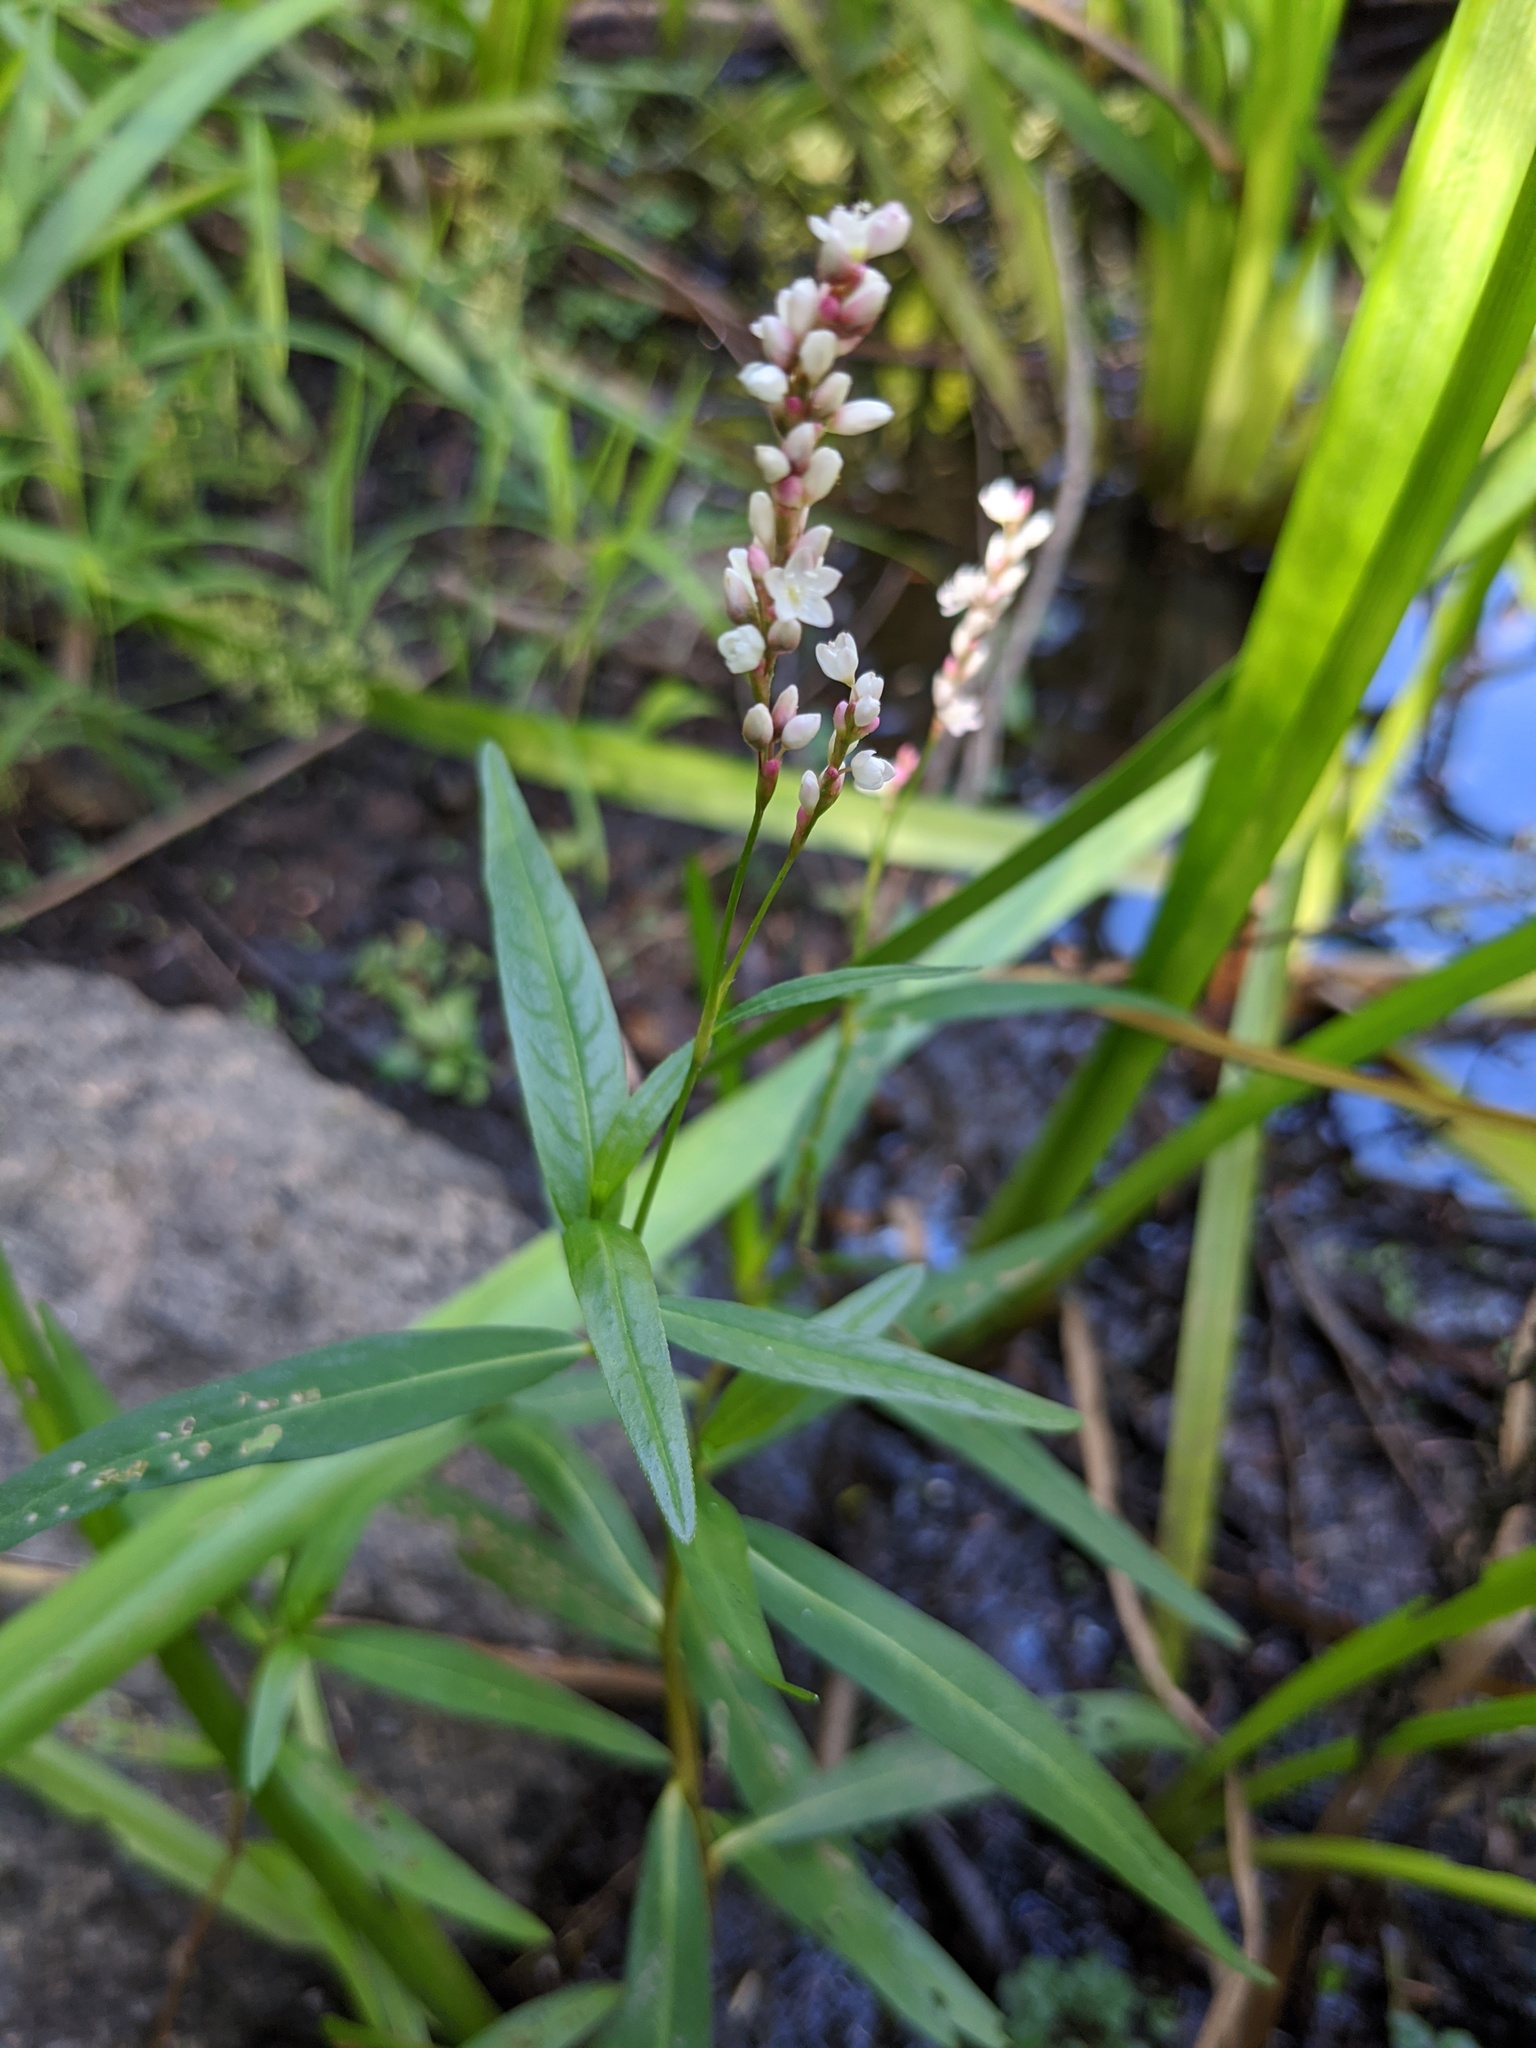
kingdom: Plantae
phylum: Tracheophyta
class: Magnoliopsida
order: Caryophyllales
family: Polygonaceae
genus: Persicaria
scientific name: Persicaria hydropiperoides
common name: Swamp smartweed
